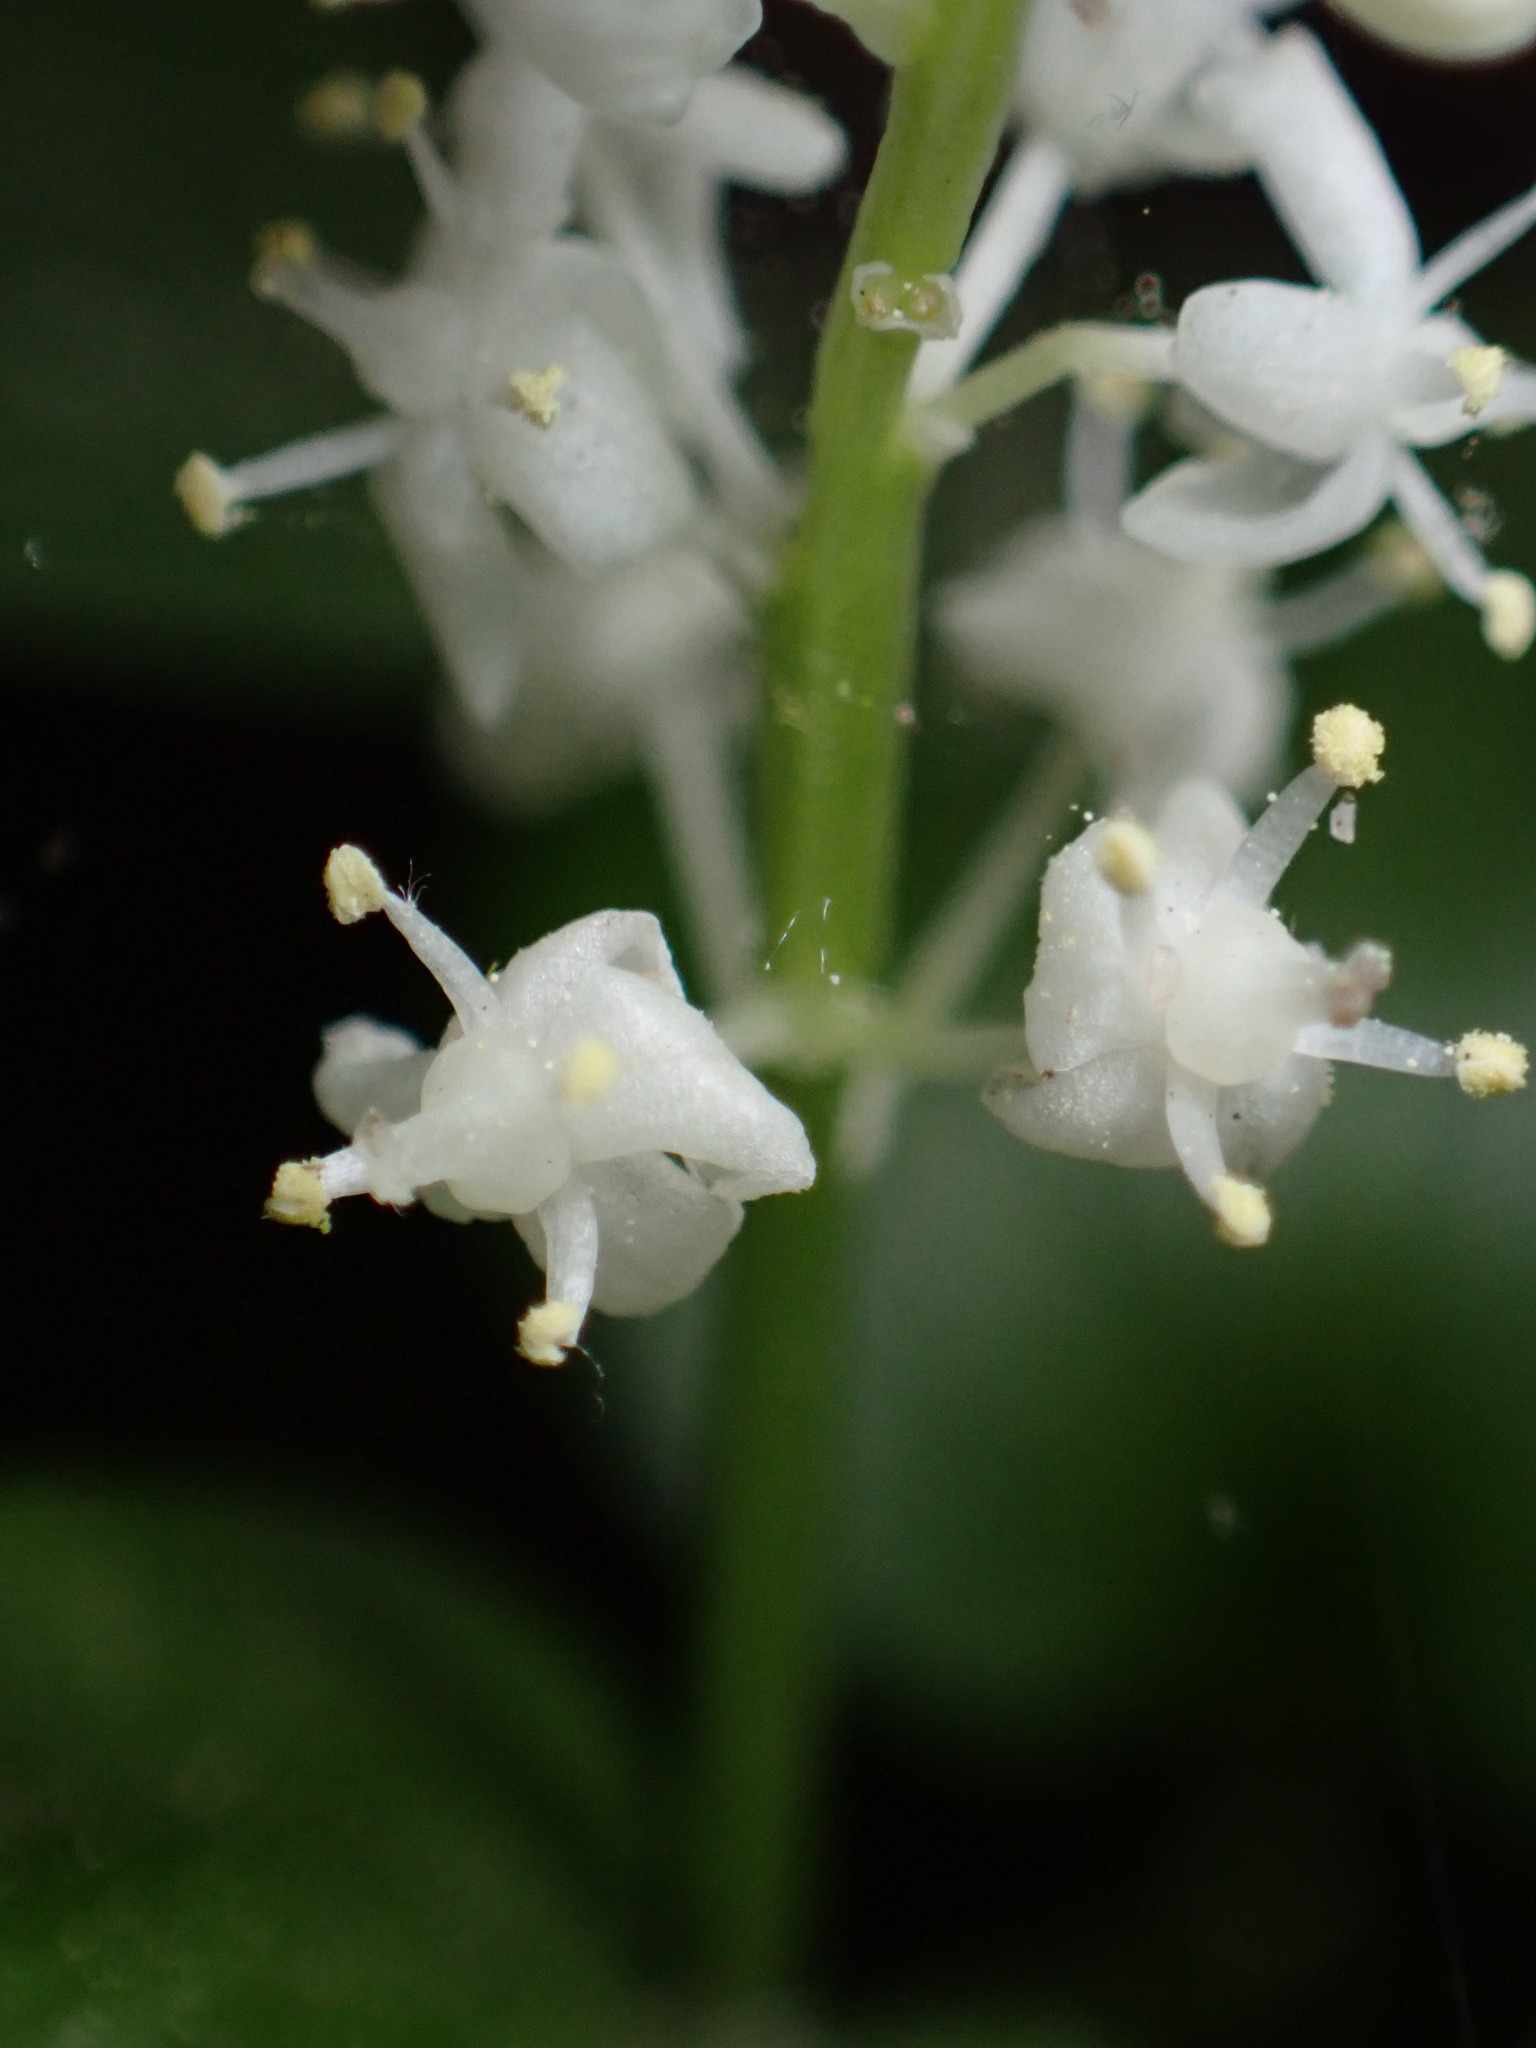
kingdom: Plantae
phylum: Tracheophyta
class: Liliopsida
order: Asparagales
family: Asparagaceae
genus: Maianthemum
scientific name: Maianthemum canadense
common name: False lily-of-the-valley
